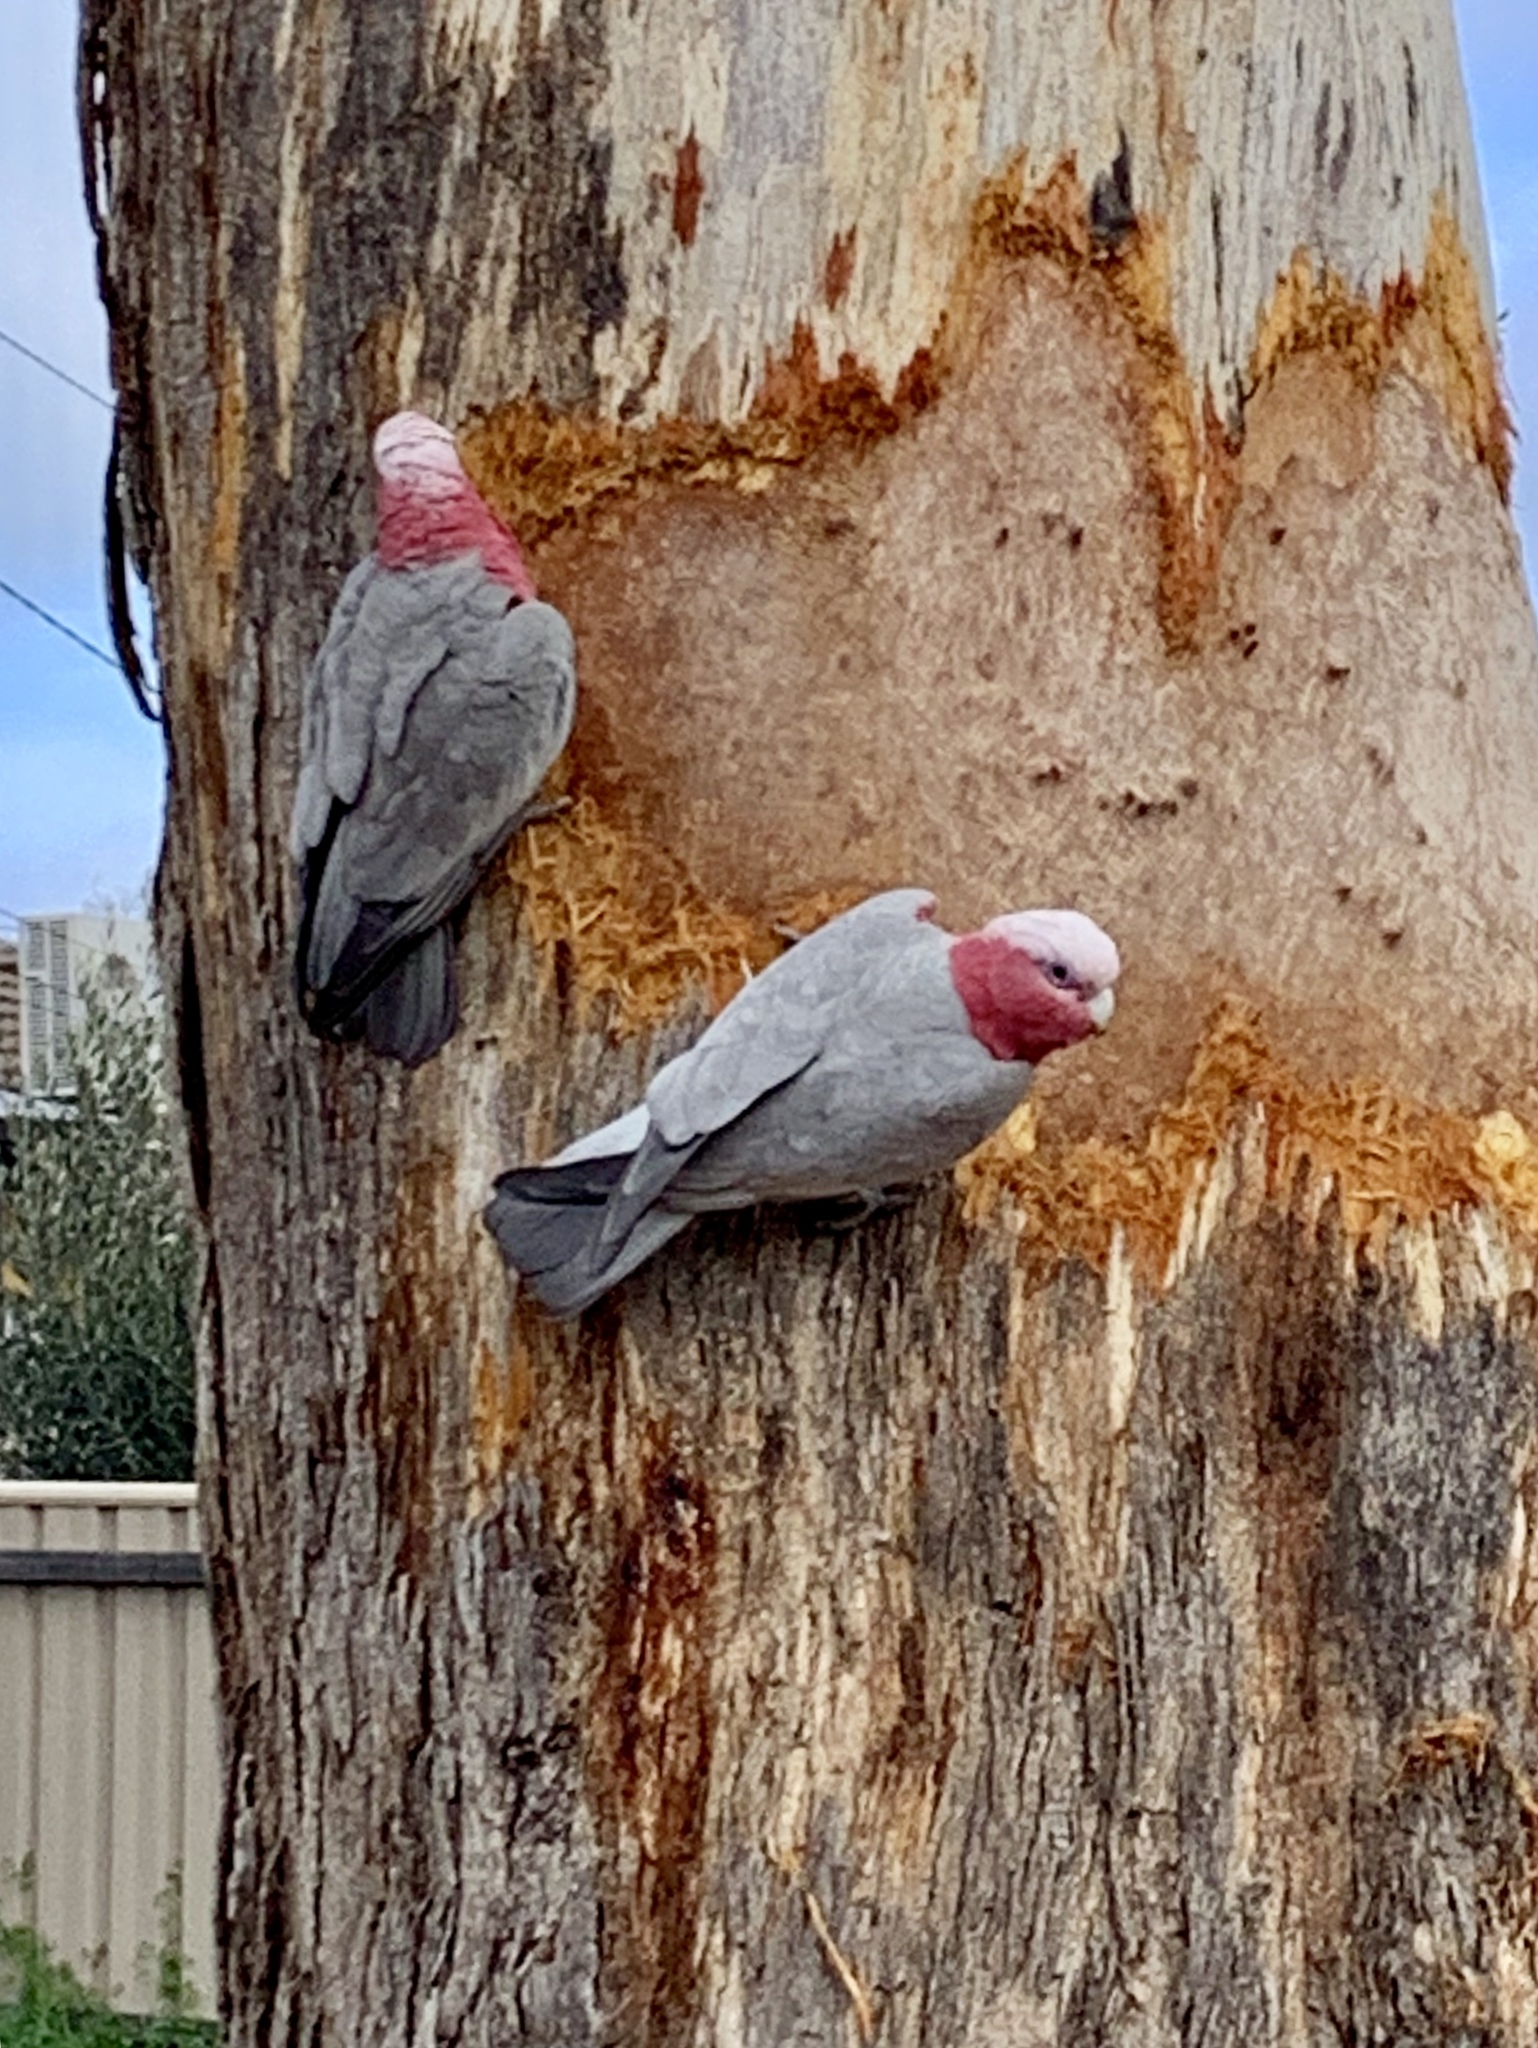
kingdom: Animalia
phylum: Chordata
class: Aves
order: Psittaciformes
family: Psittacidae
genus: Eolophus
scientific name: Eolophus roseicapilla
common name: Galah
